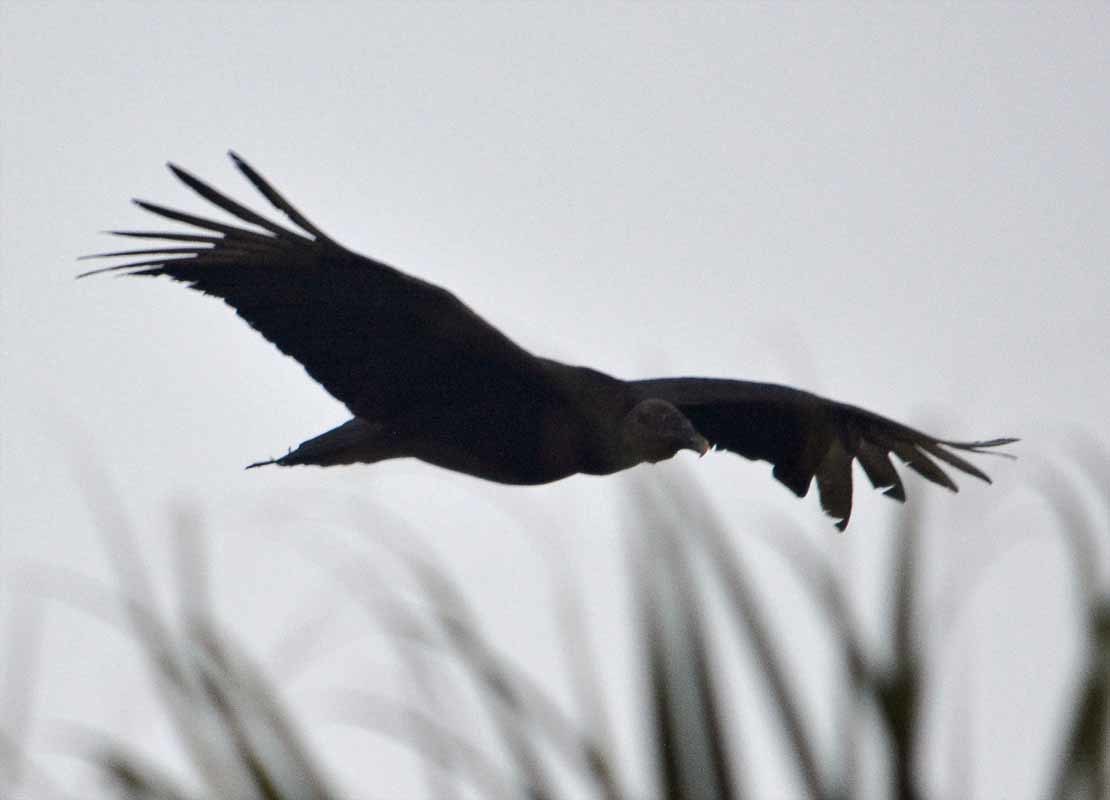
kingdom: Animalia
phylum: Chordata
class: Aves
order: Accipitriformes
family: Cathartidae
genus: Coragyps
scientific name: Coragyps atratus
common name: Black vulture
